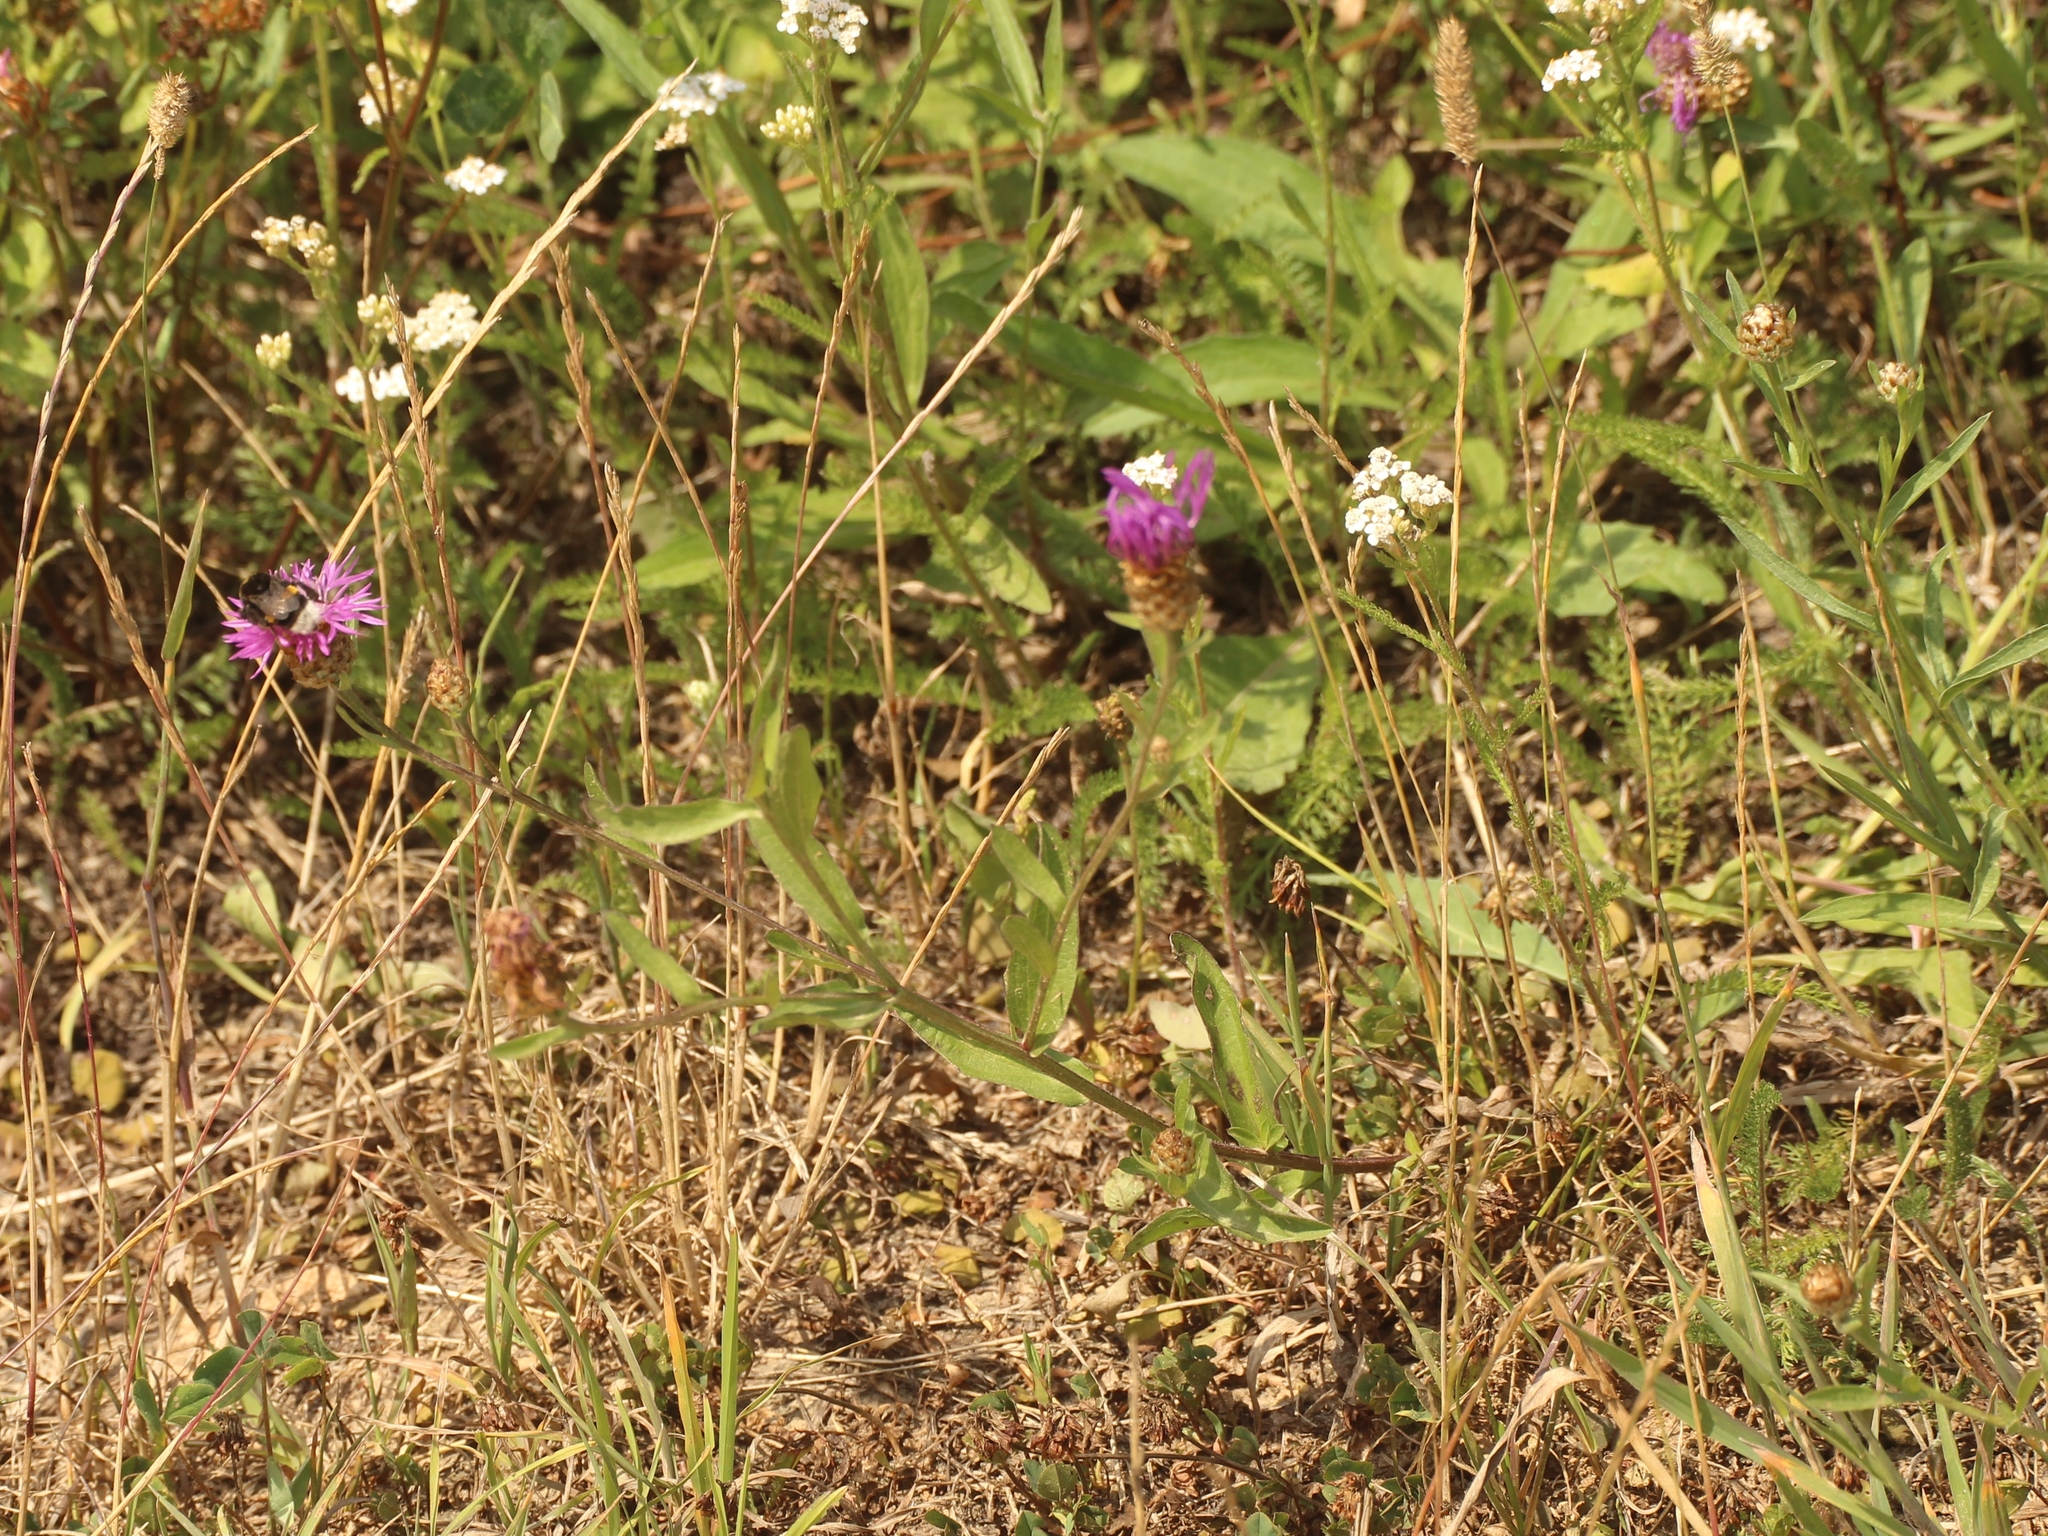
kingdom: Plantae
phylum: Tracheophyta
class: Magnoliopsida
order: Asterales
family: Asteraceae
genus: Centaurea
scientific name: Centaurea jacea
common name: Brown knapweed
